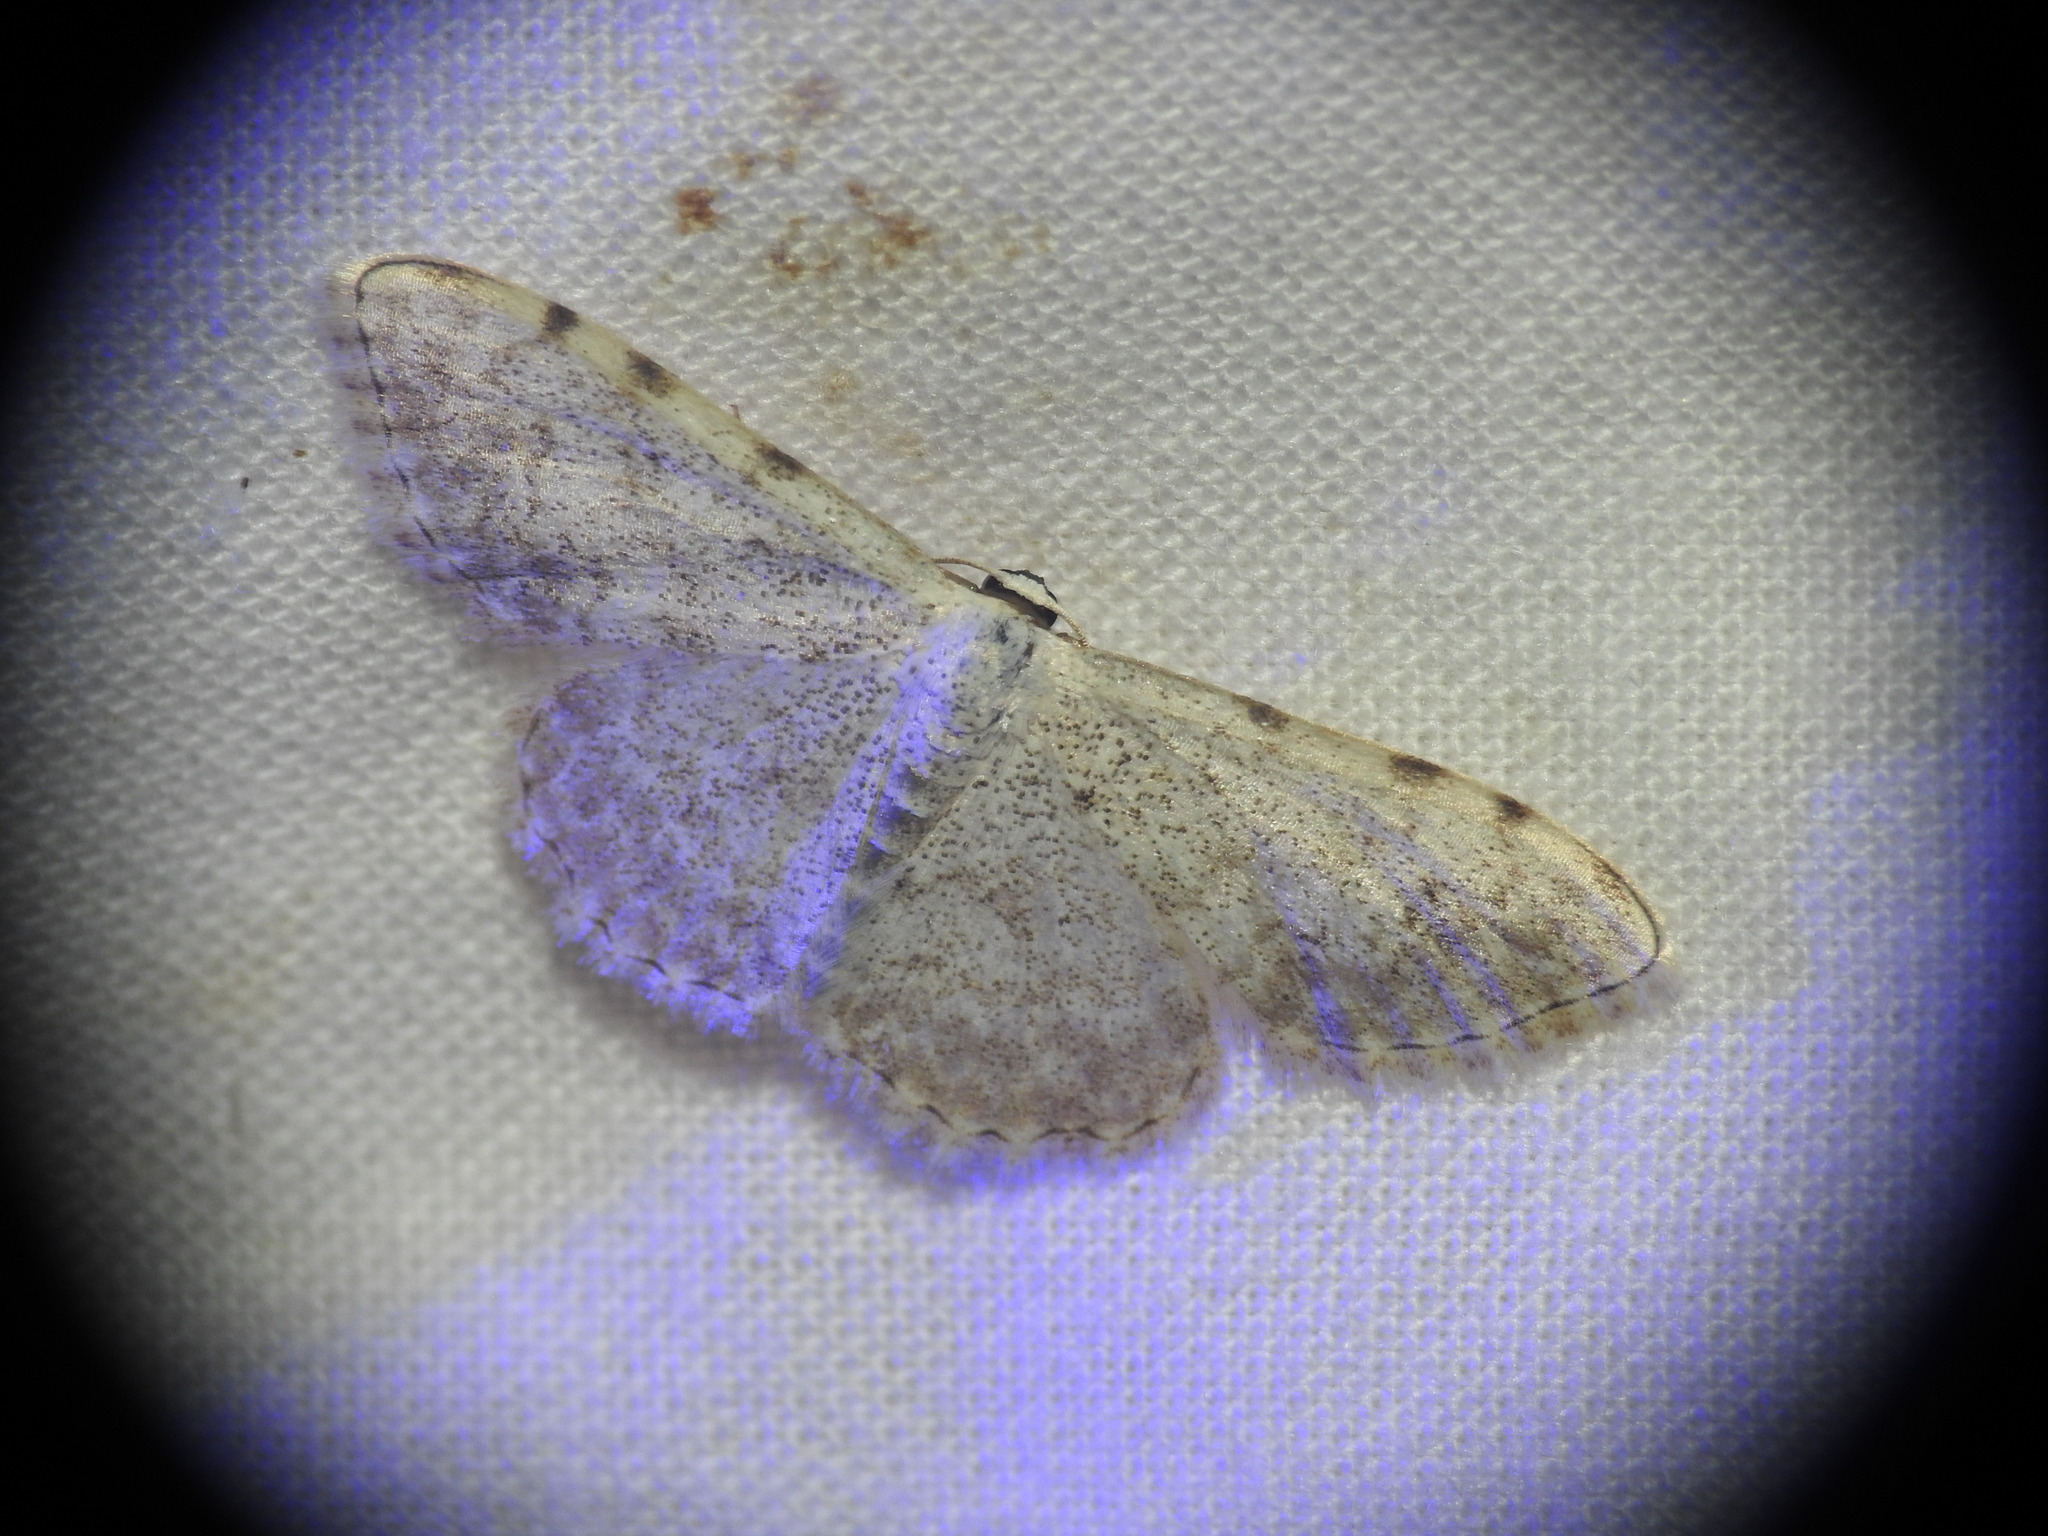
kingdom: Animalia
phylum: Arthropoda
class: Insecta
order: Lepidoptera
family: Geometridae
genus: Scopula
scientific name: Scopula submutata
